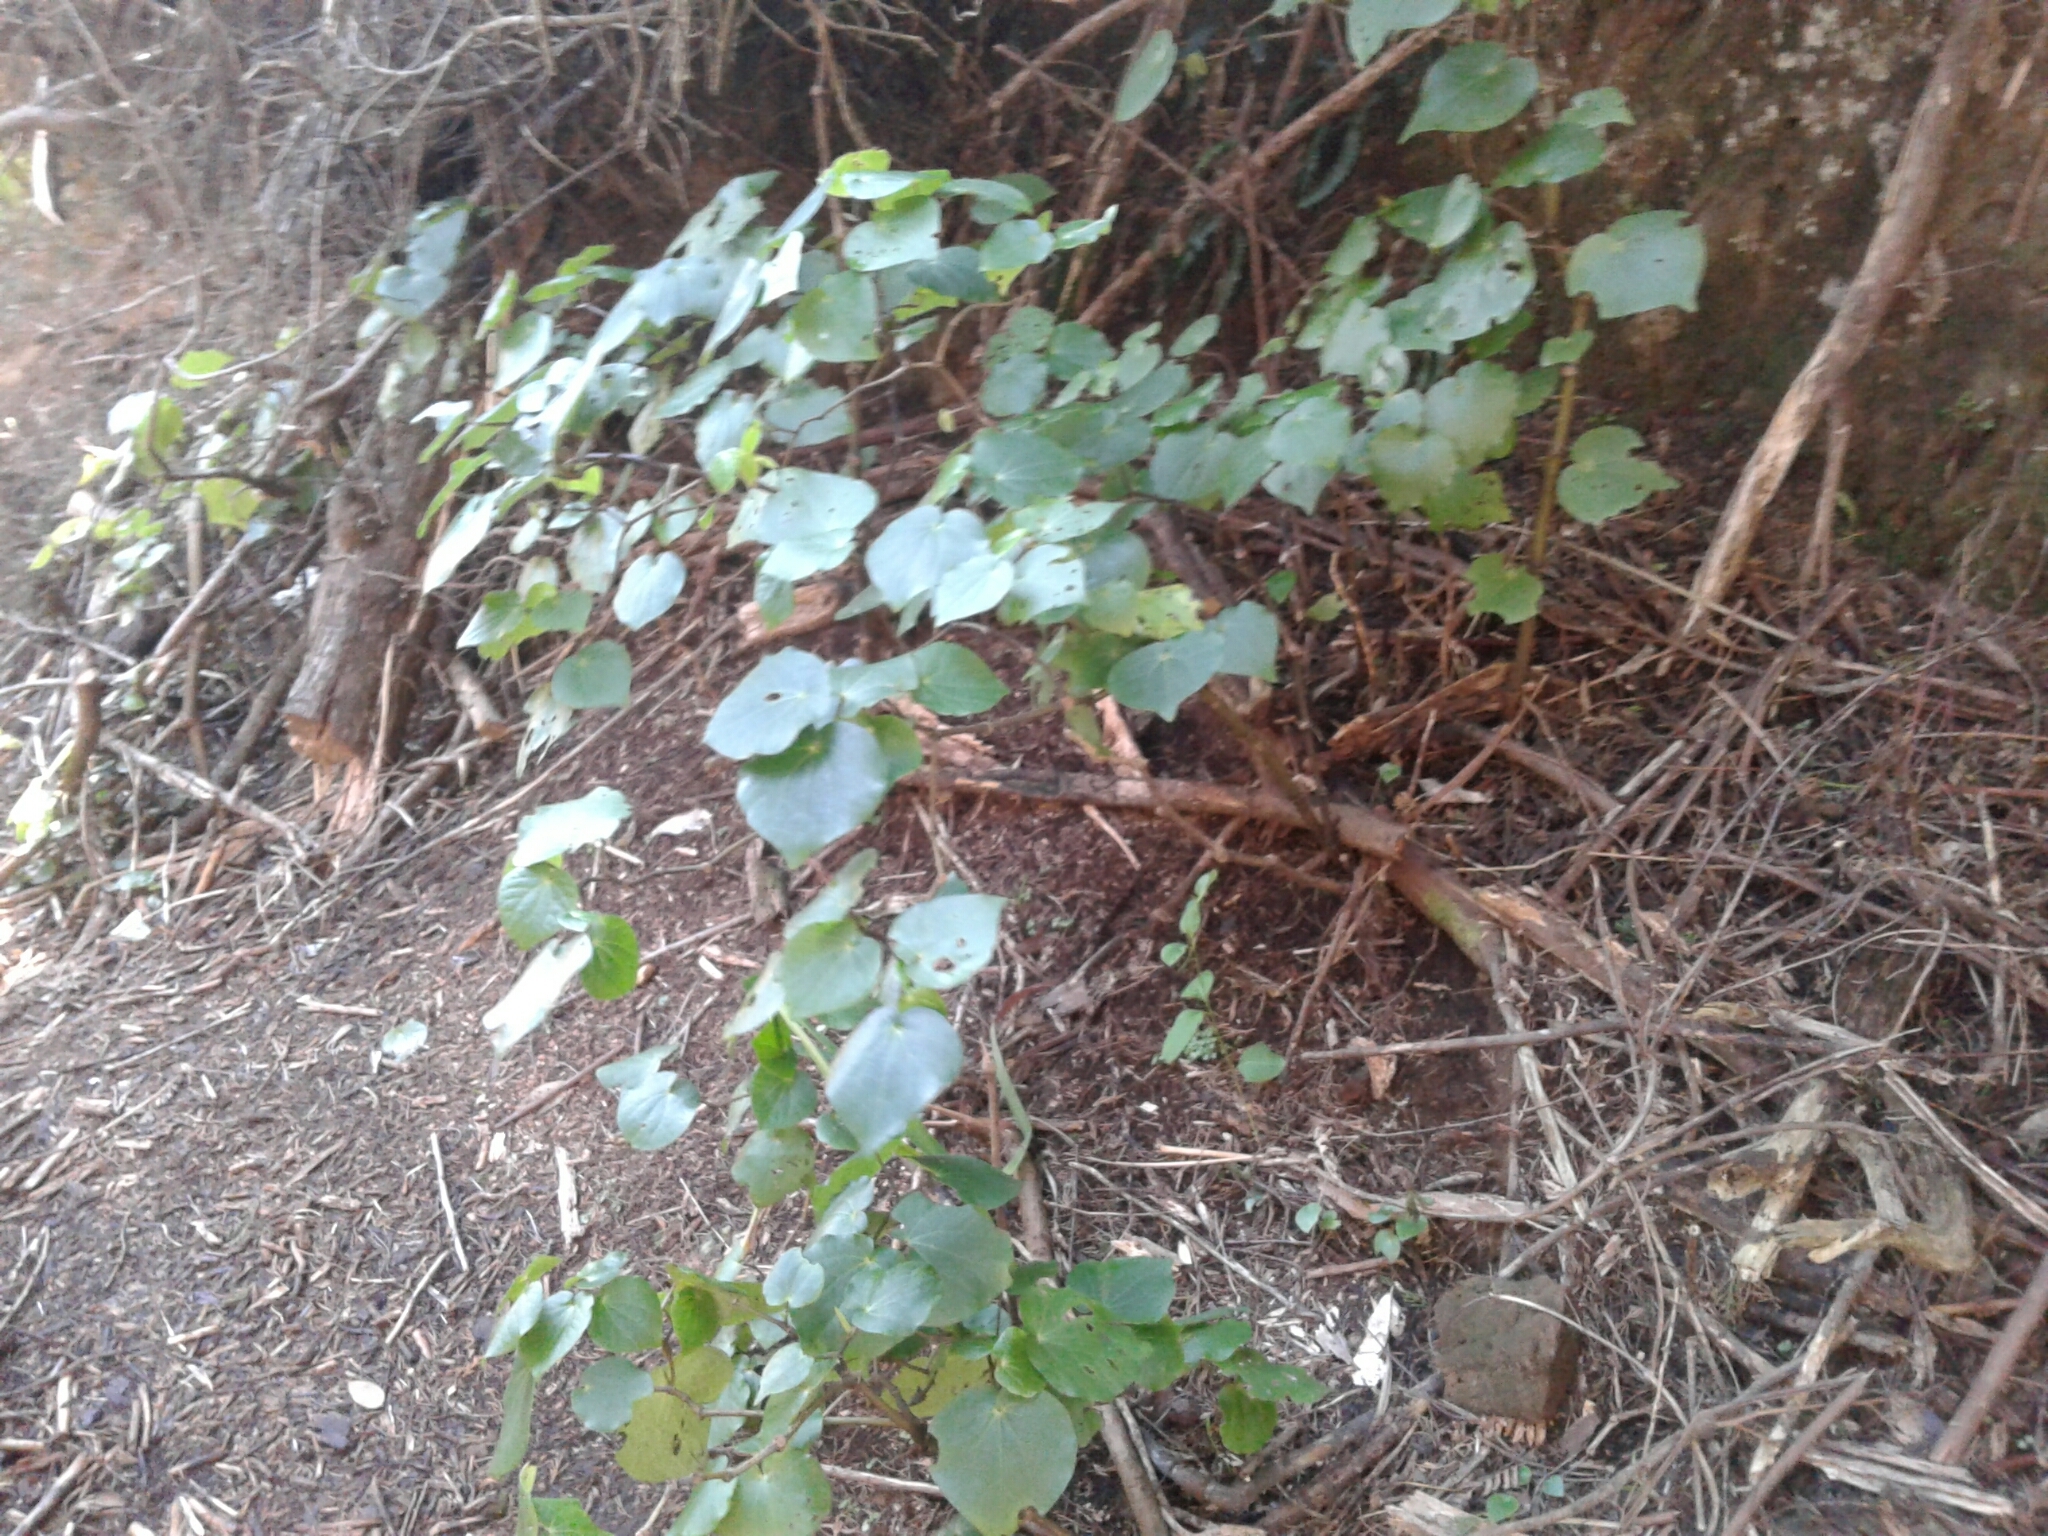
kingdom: Plantae
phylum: Tracheophyta
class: Magnoliopsida
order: Piperales
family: Piperaceae
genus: Macropiper
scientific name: Macropiper excelsum
